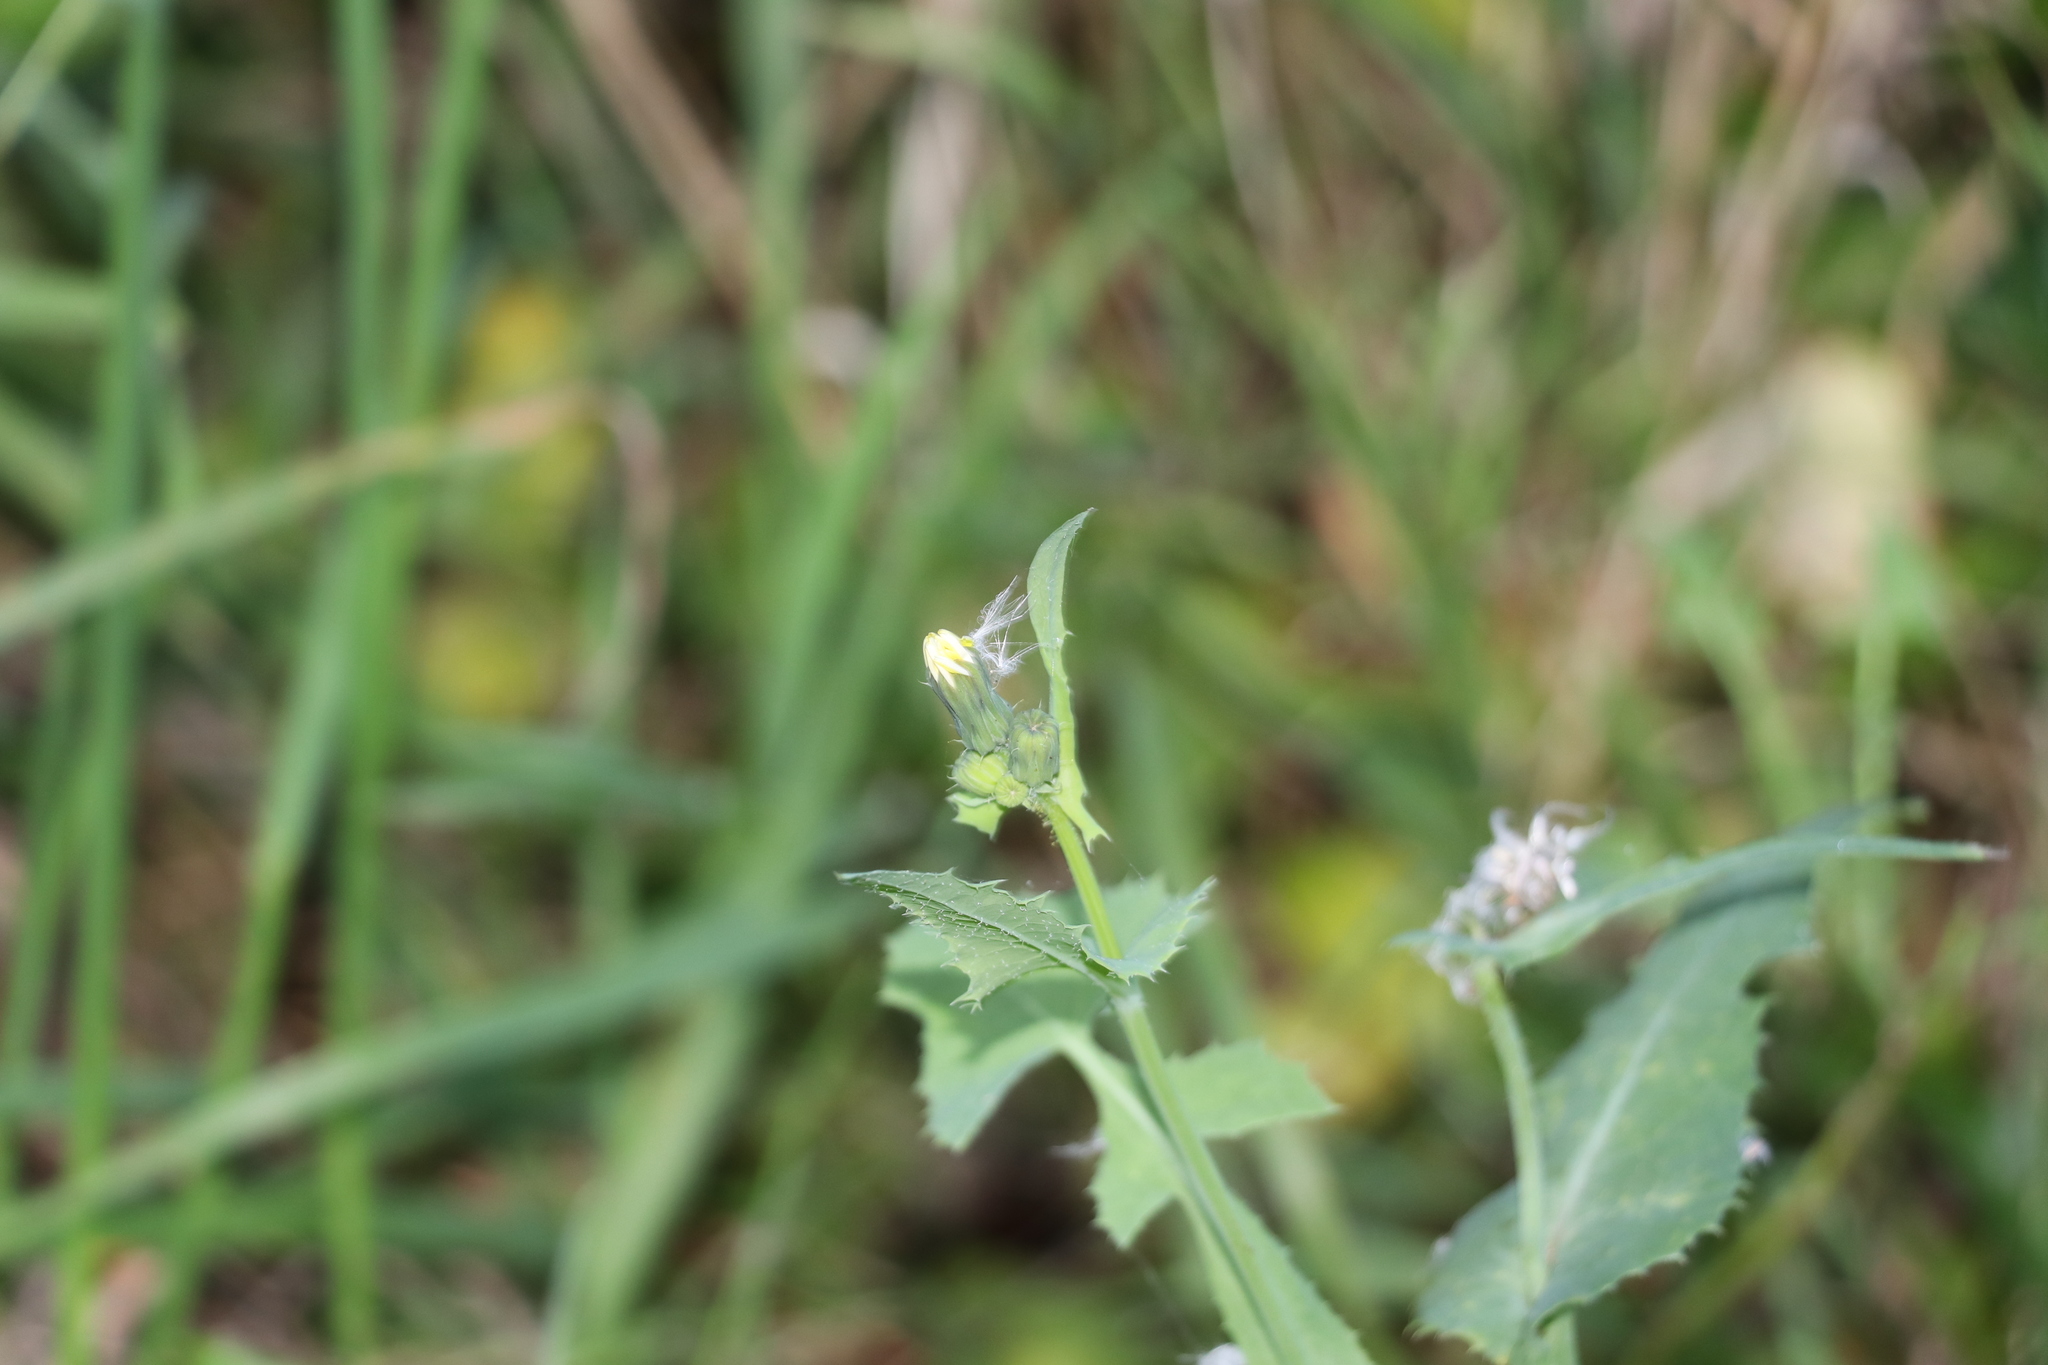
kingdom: Plantae
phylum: Tracheophyta
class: Magnoliopsida
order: Asterales
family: Asteraceae
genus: Sonchus
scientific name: Sonchus oleraceus
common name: Common sowthistle
